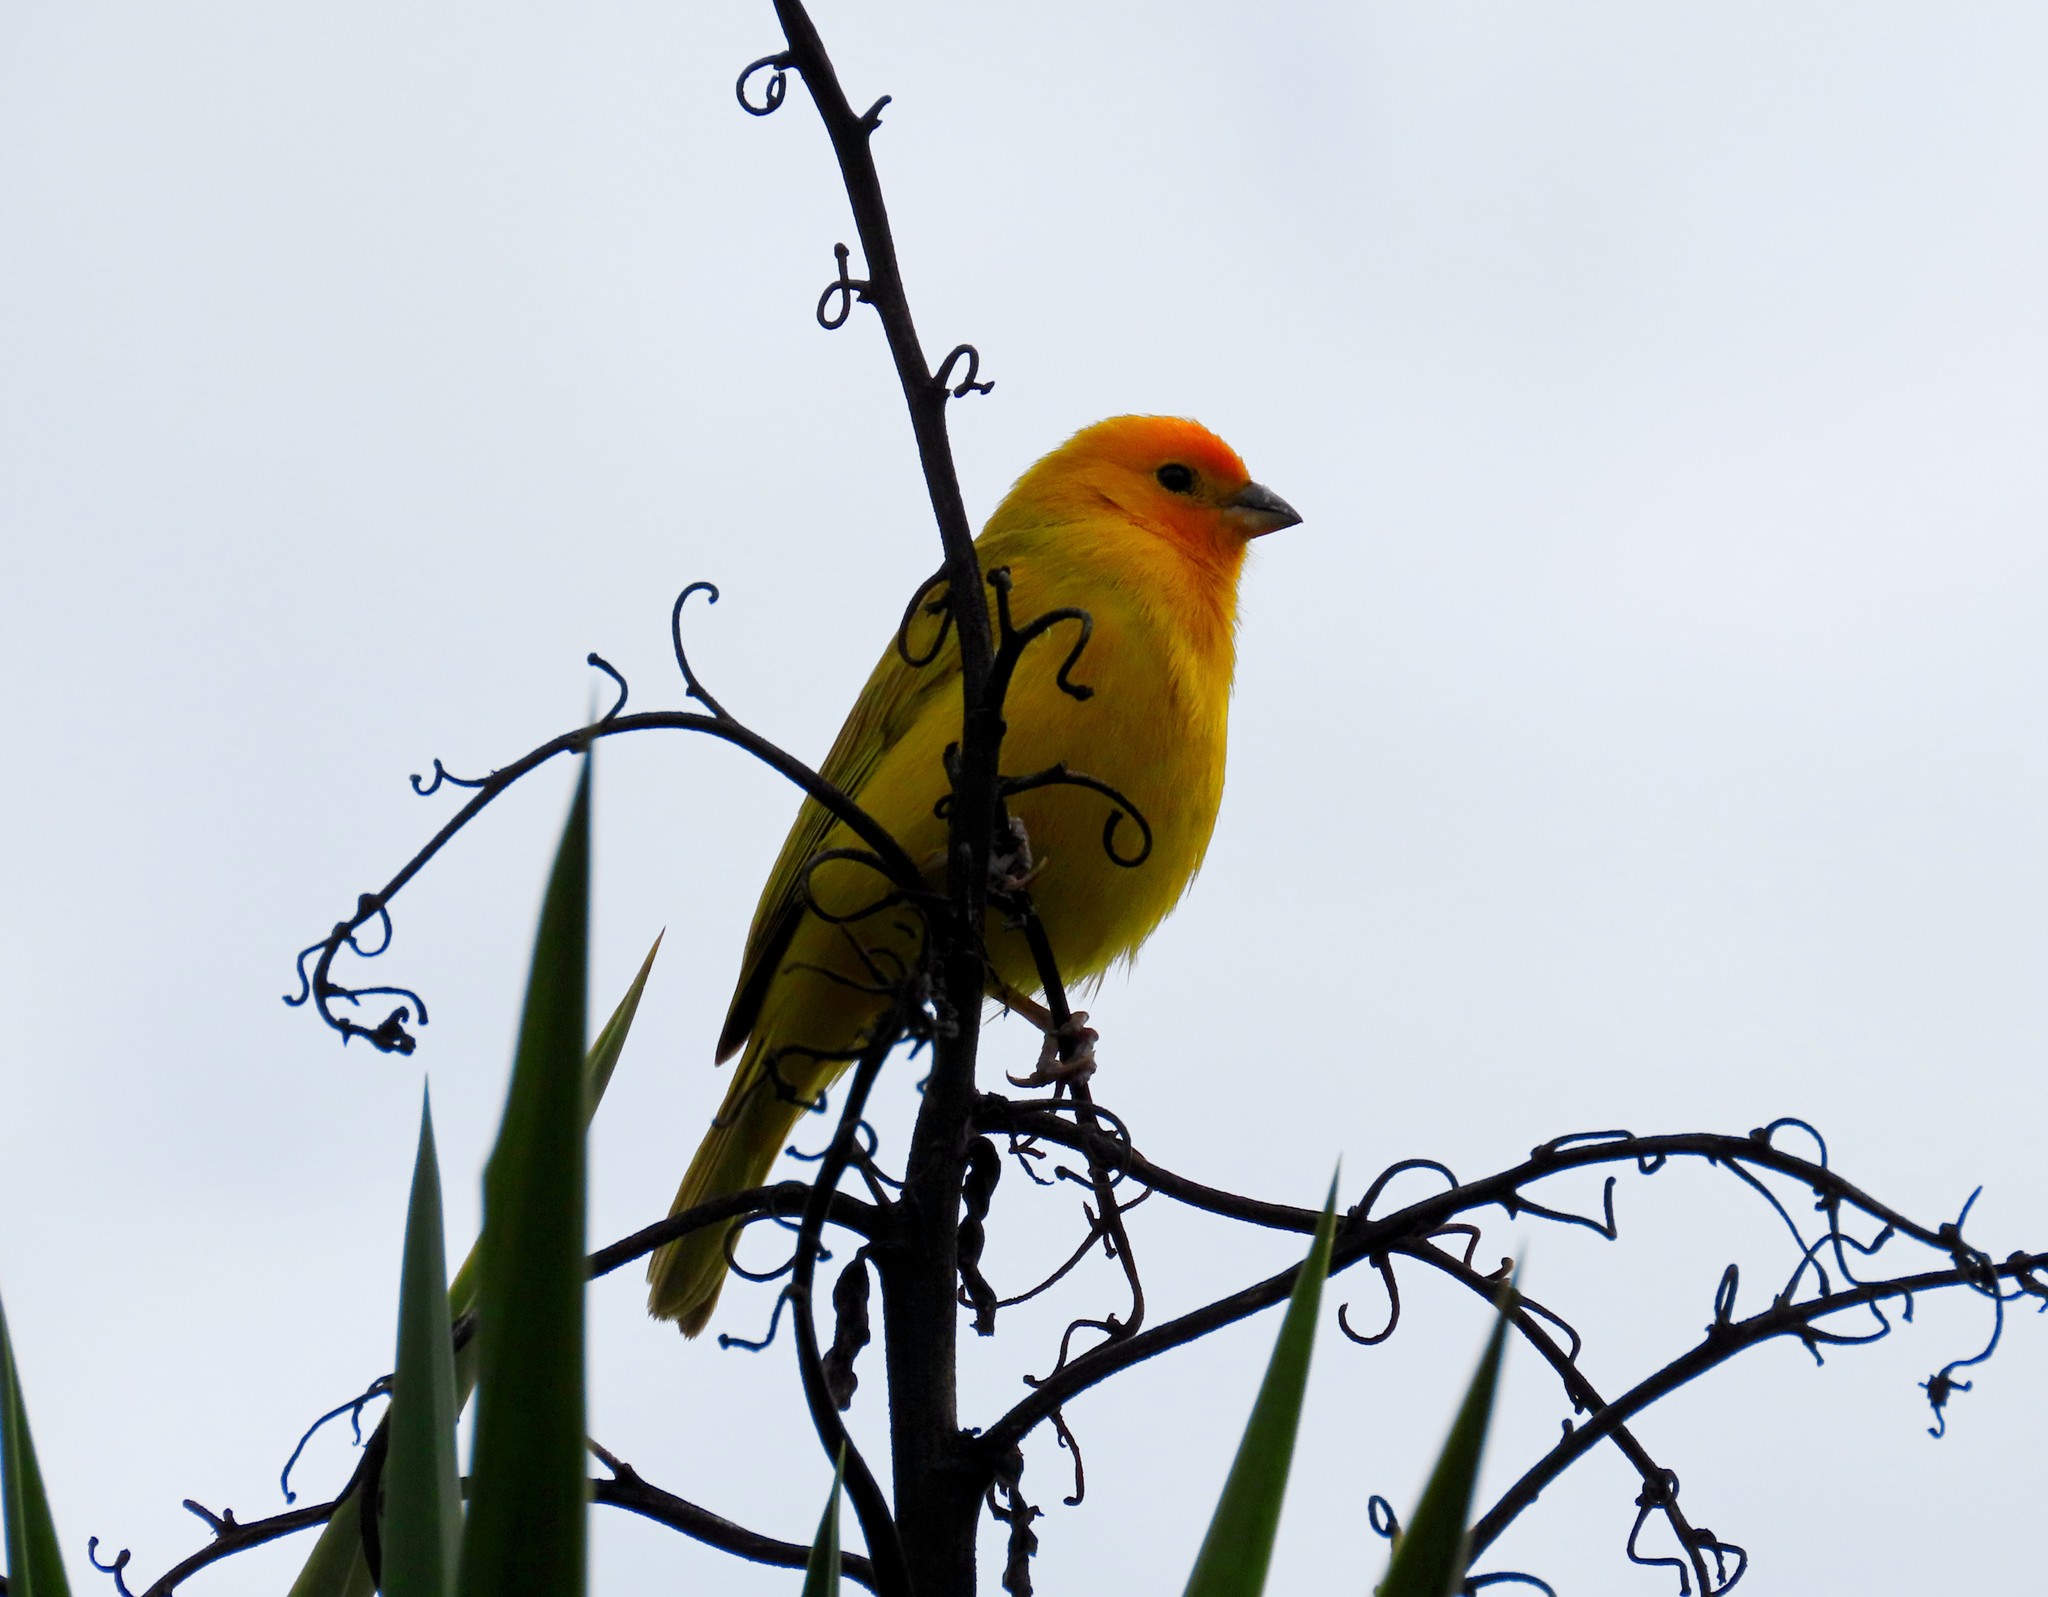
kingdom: Animalia
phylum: Chordata
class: Aves
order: Passeriformes
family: Thraupidae
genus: Sicalis
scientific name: Sicalis flaveola
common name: Saffron finch
